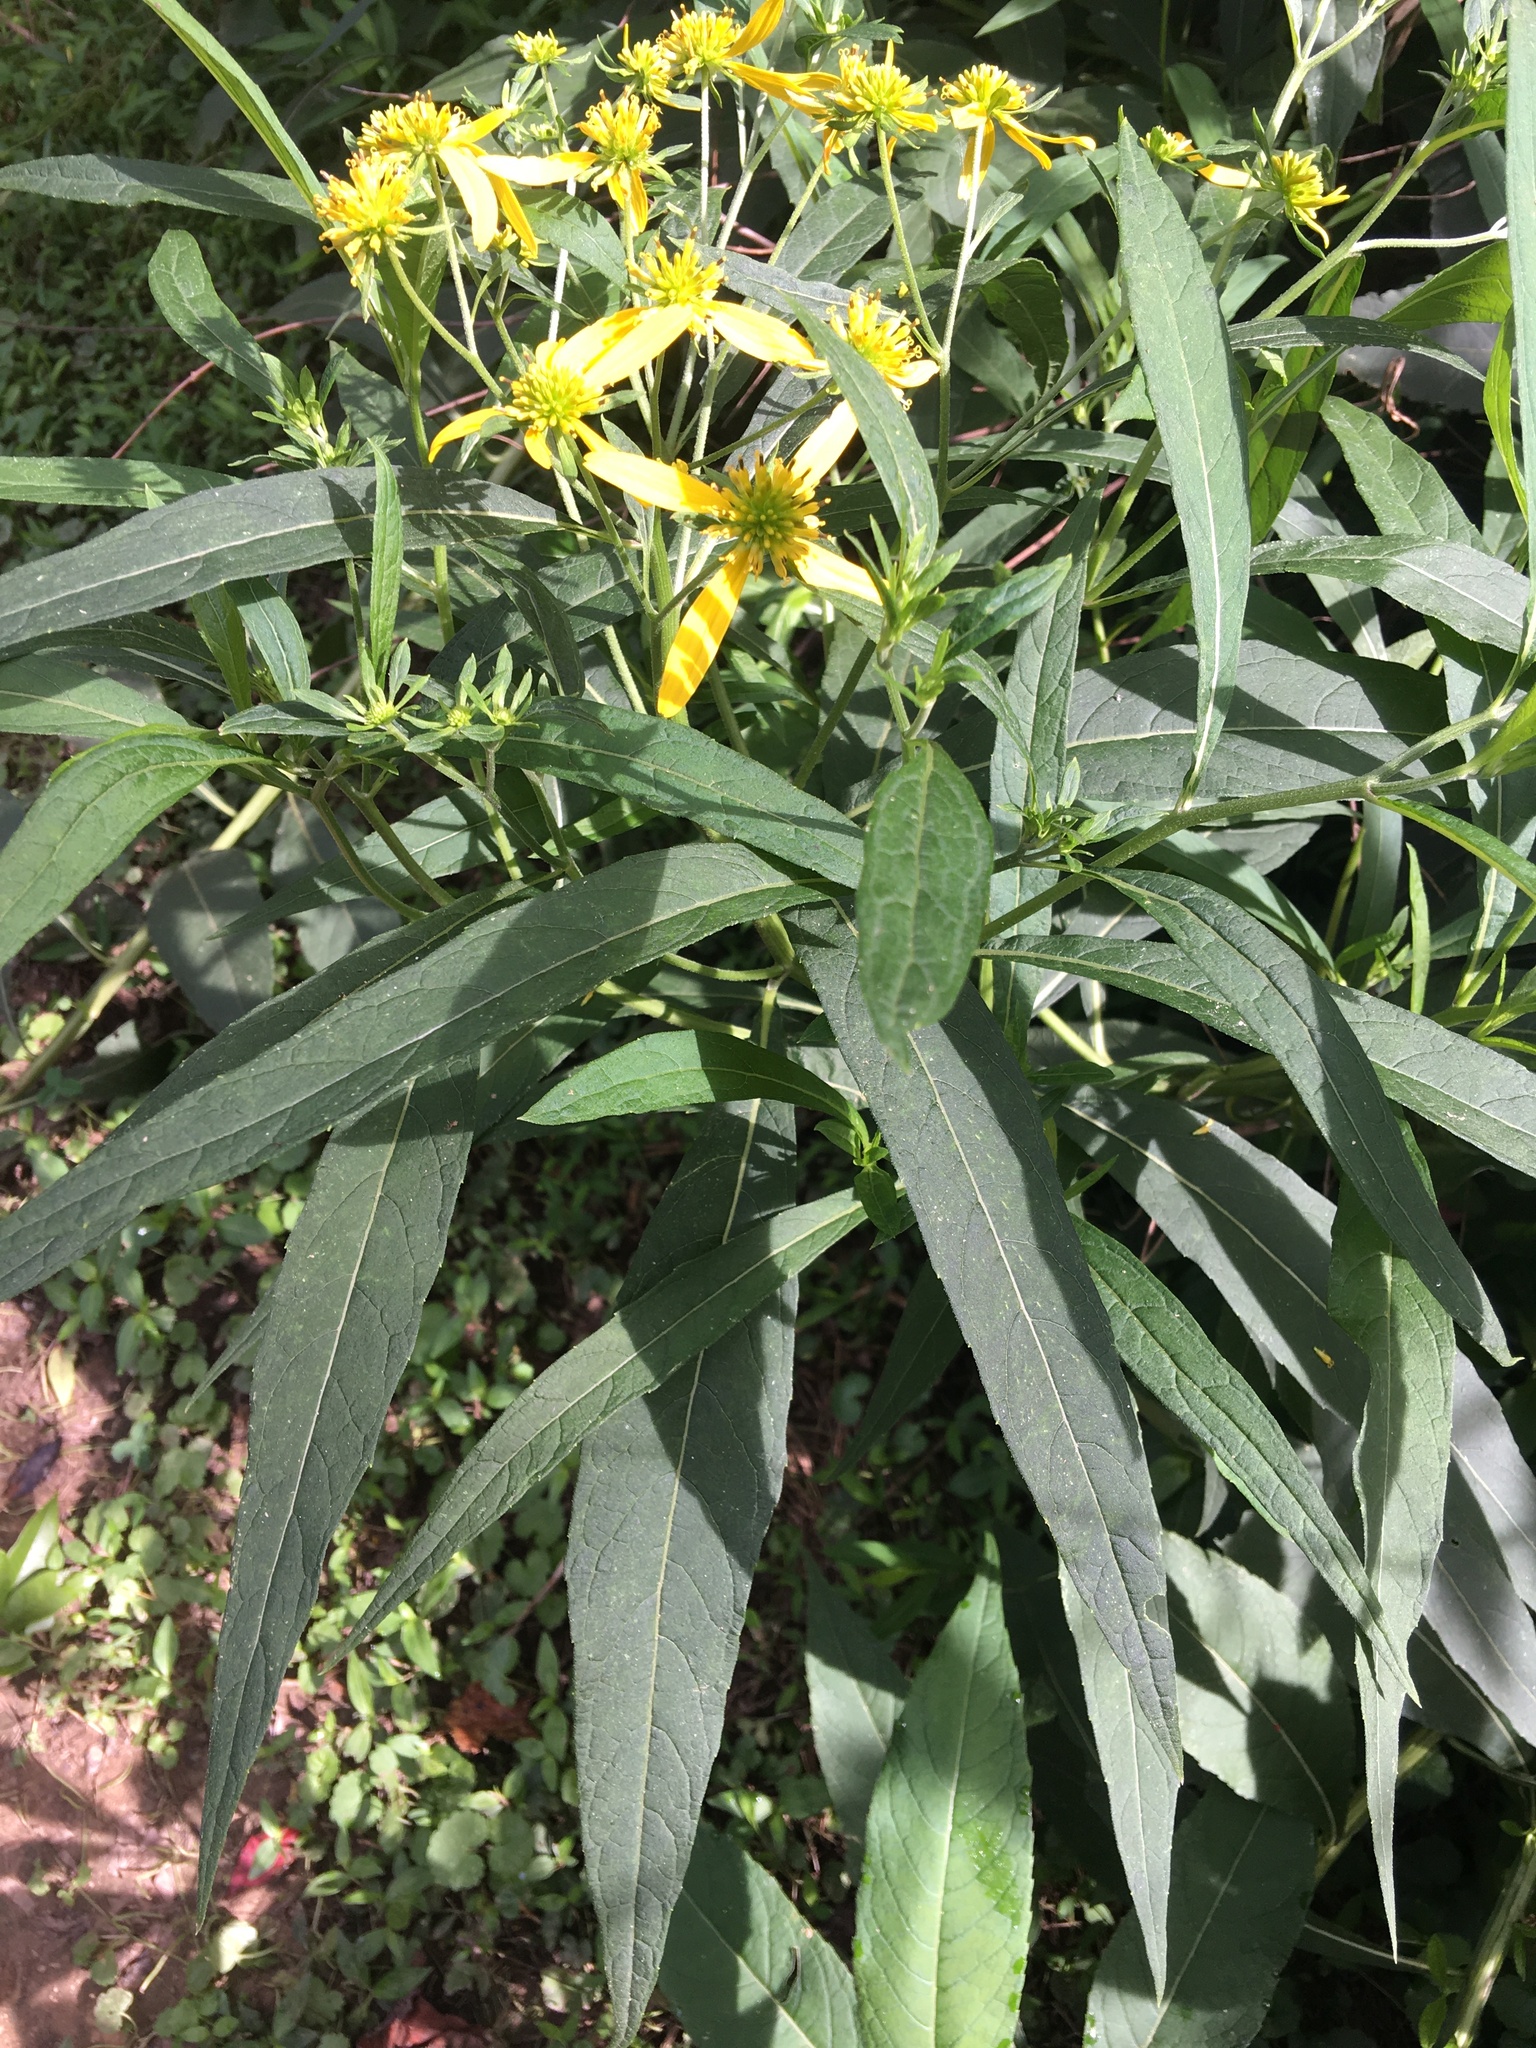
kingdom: Plantae
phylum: Tracheophyta
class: Magnoliopsida
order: Asterales
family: Asteraceae
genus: Verbesina
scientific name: Verbesina alternifolia
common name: Wingstem
